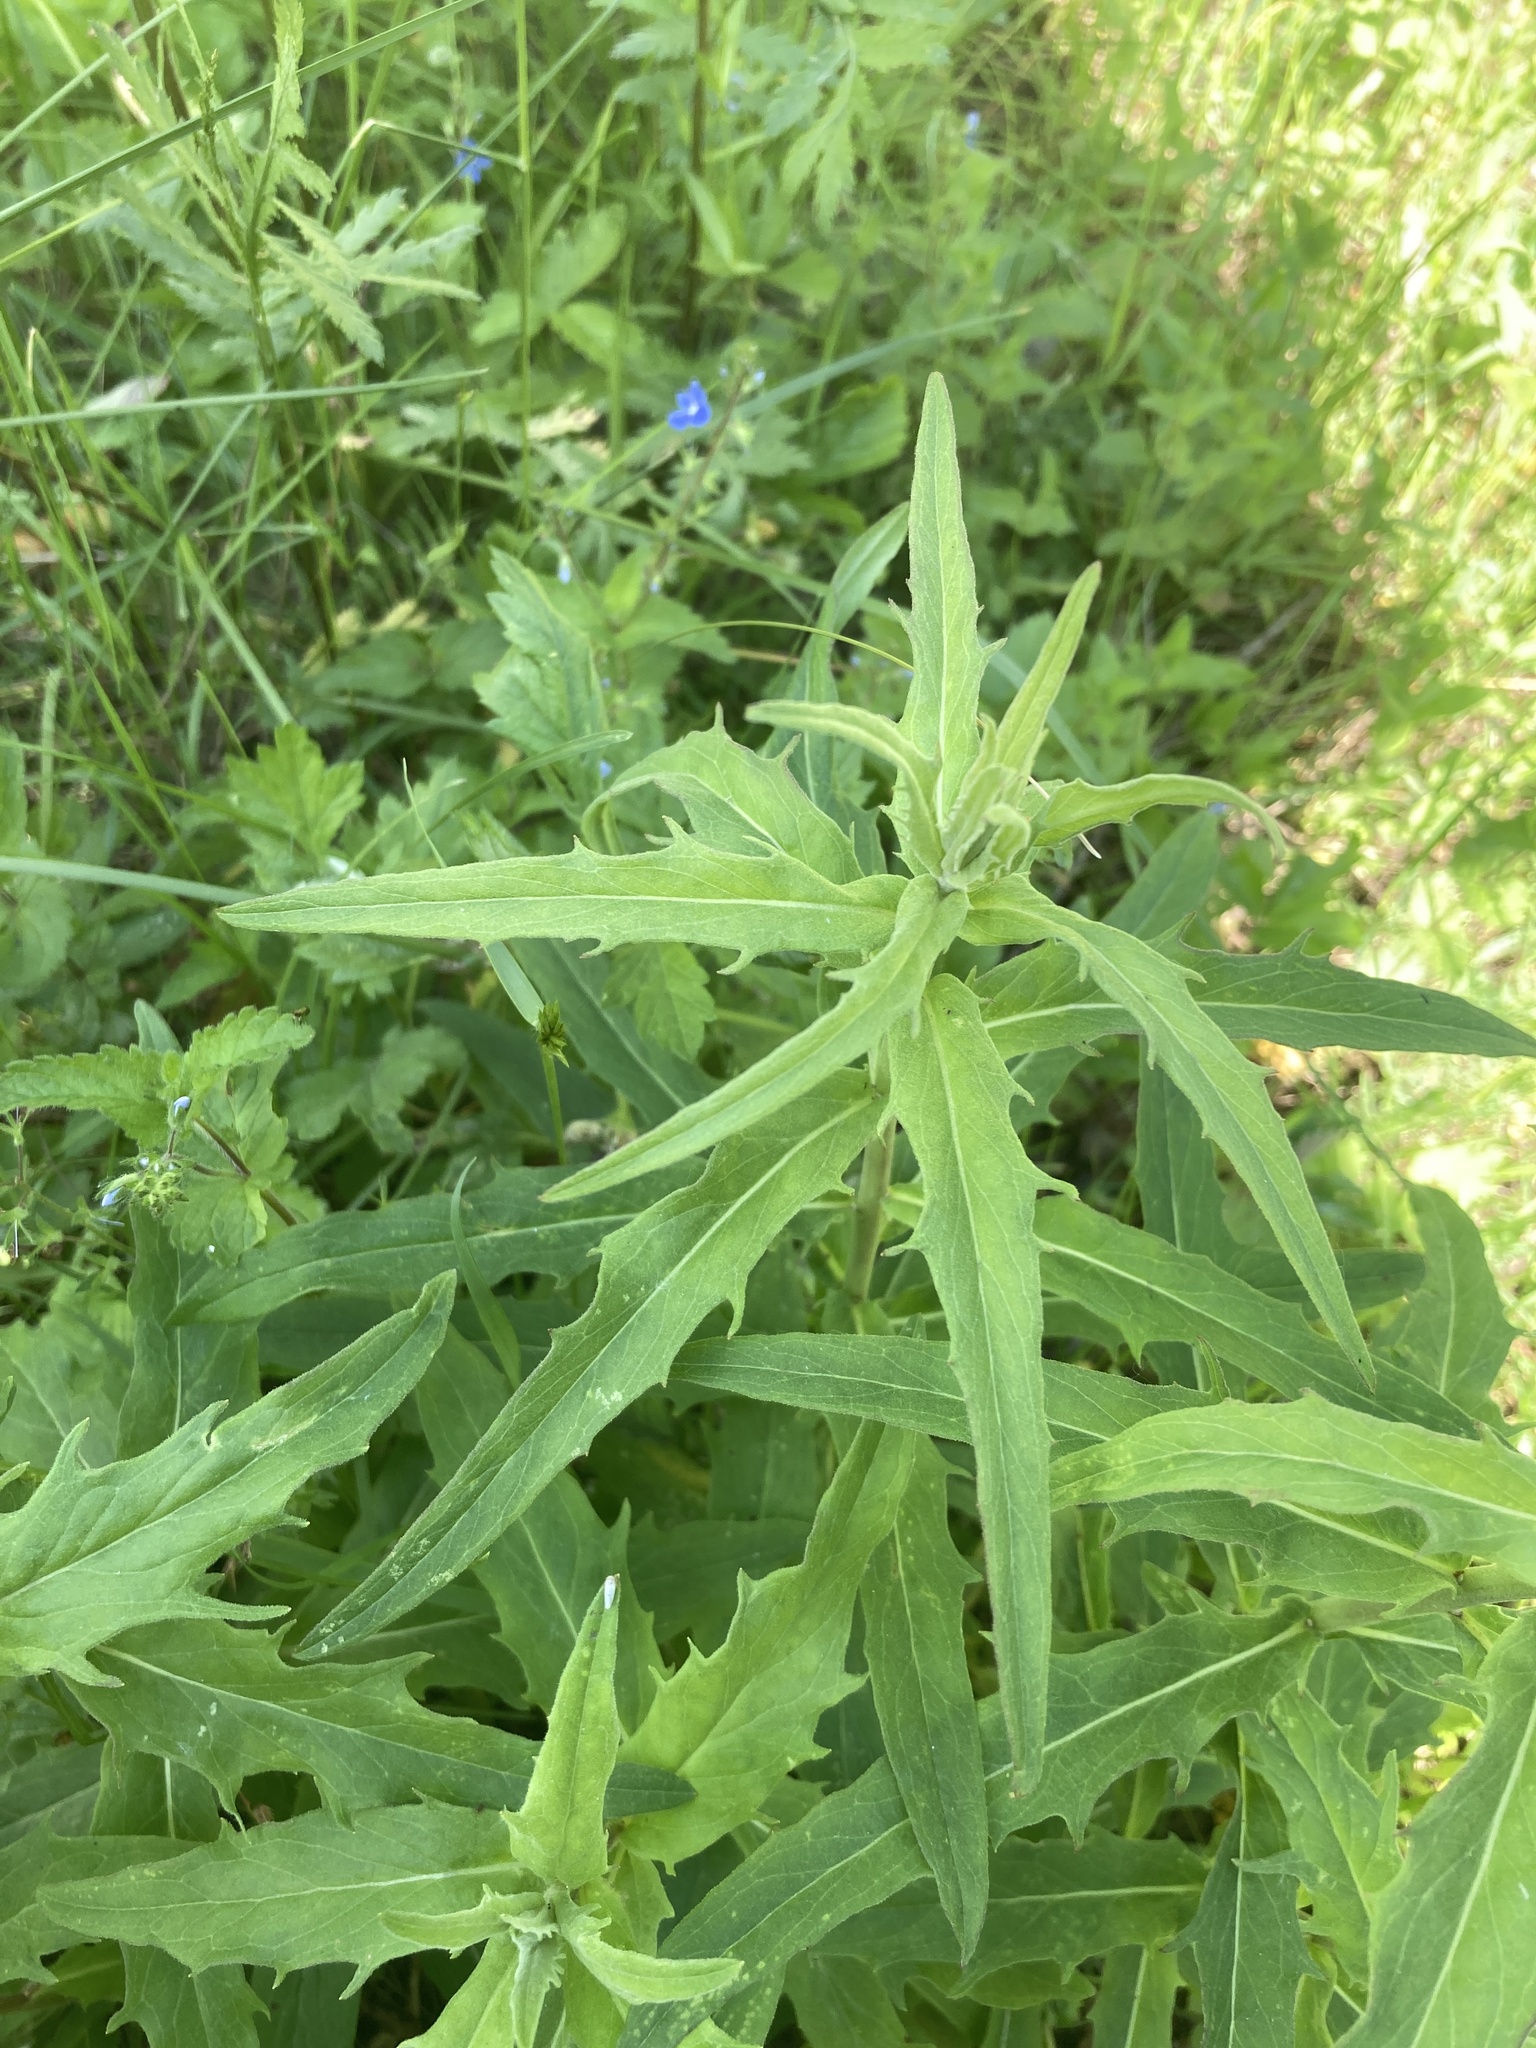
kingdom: Plantae
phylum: Tracheophyta
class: Magnoliopsida
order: Asterales
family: Asteraceae
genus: Hieracium
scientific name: Hieracium umbellatum
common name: Northern hawkweed
